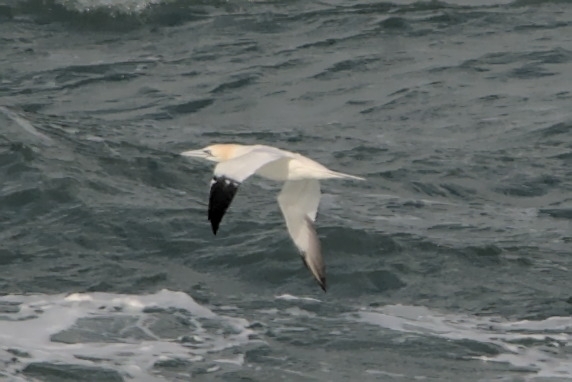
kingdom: Animalia
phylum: Chordata
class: Aves
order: Suliformes
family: Sulidae
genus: Morus
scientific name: Morus bassanus
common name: Northern gannet
